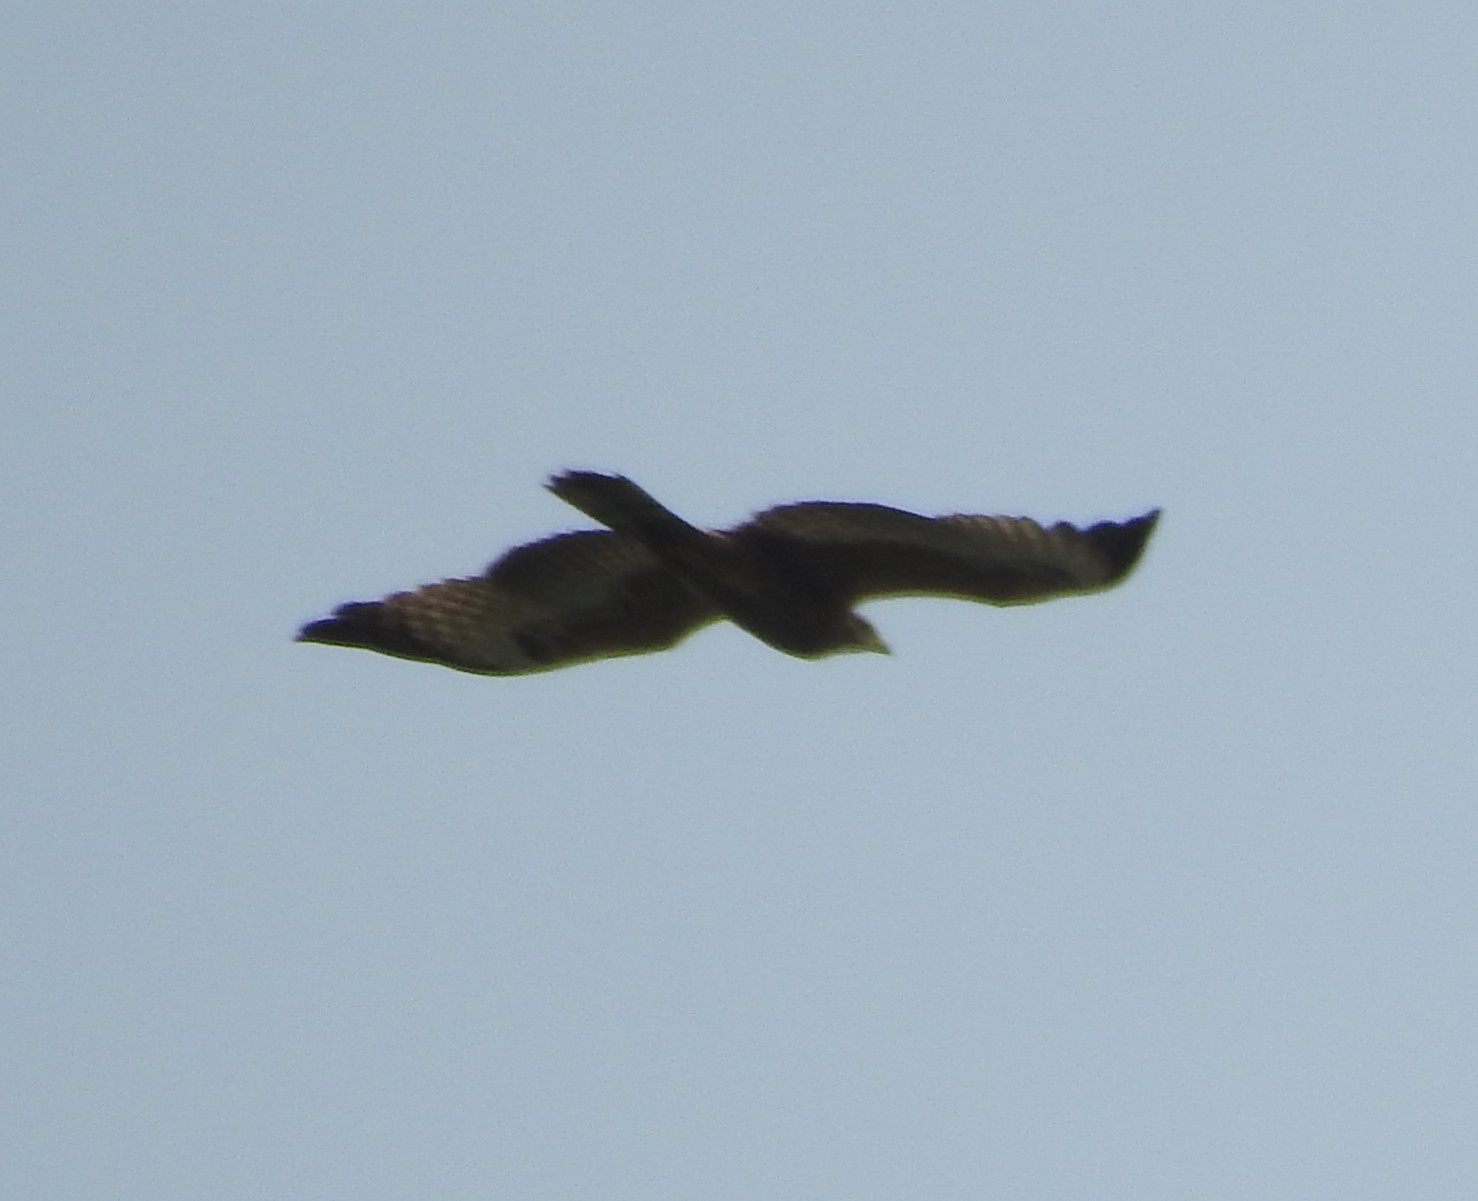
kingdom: Animalia
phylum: Chordata
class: Aves
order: Accipitriformes
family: Accipitridae
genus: Pernis
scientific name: Pernis ptilorhynchus
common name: Crested honey buzzard
